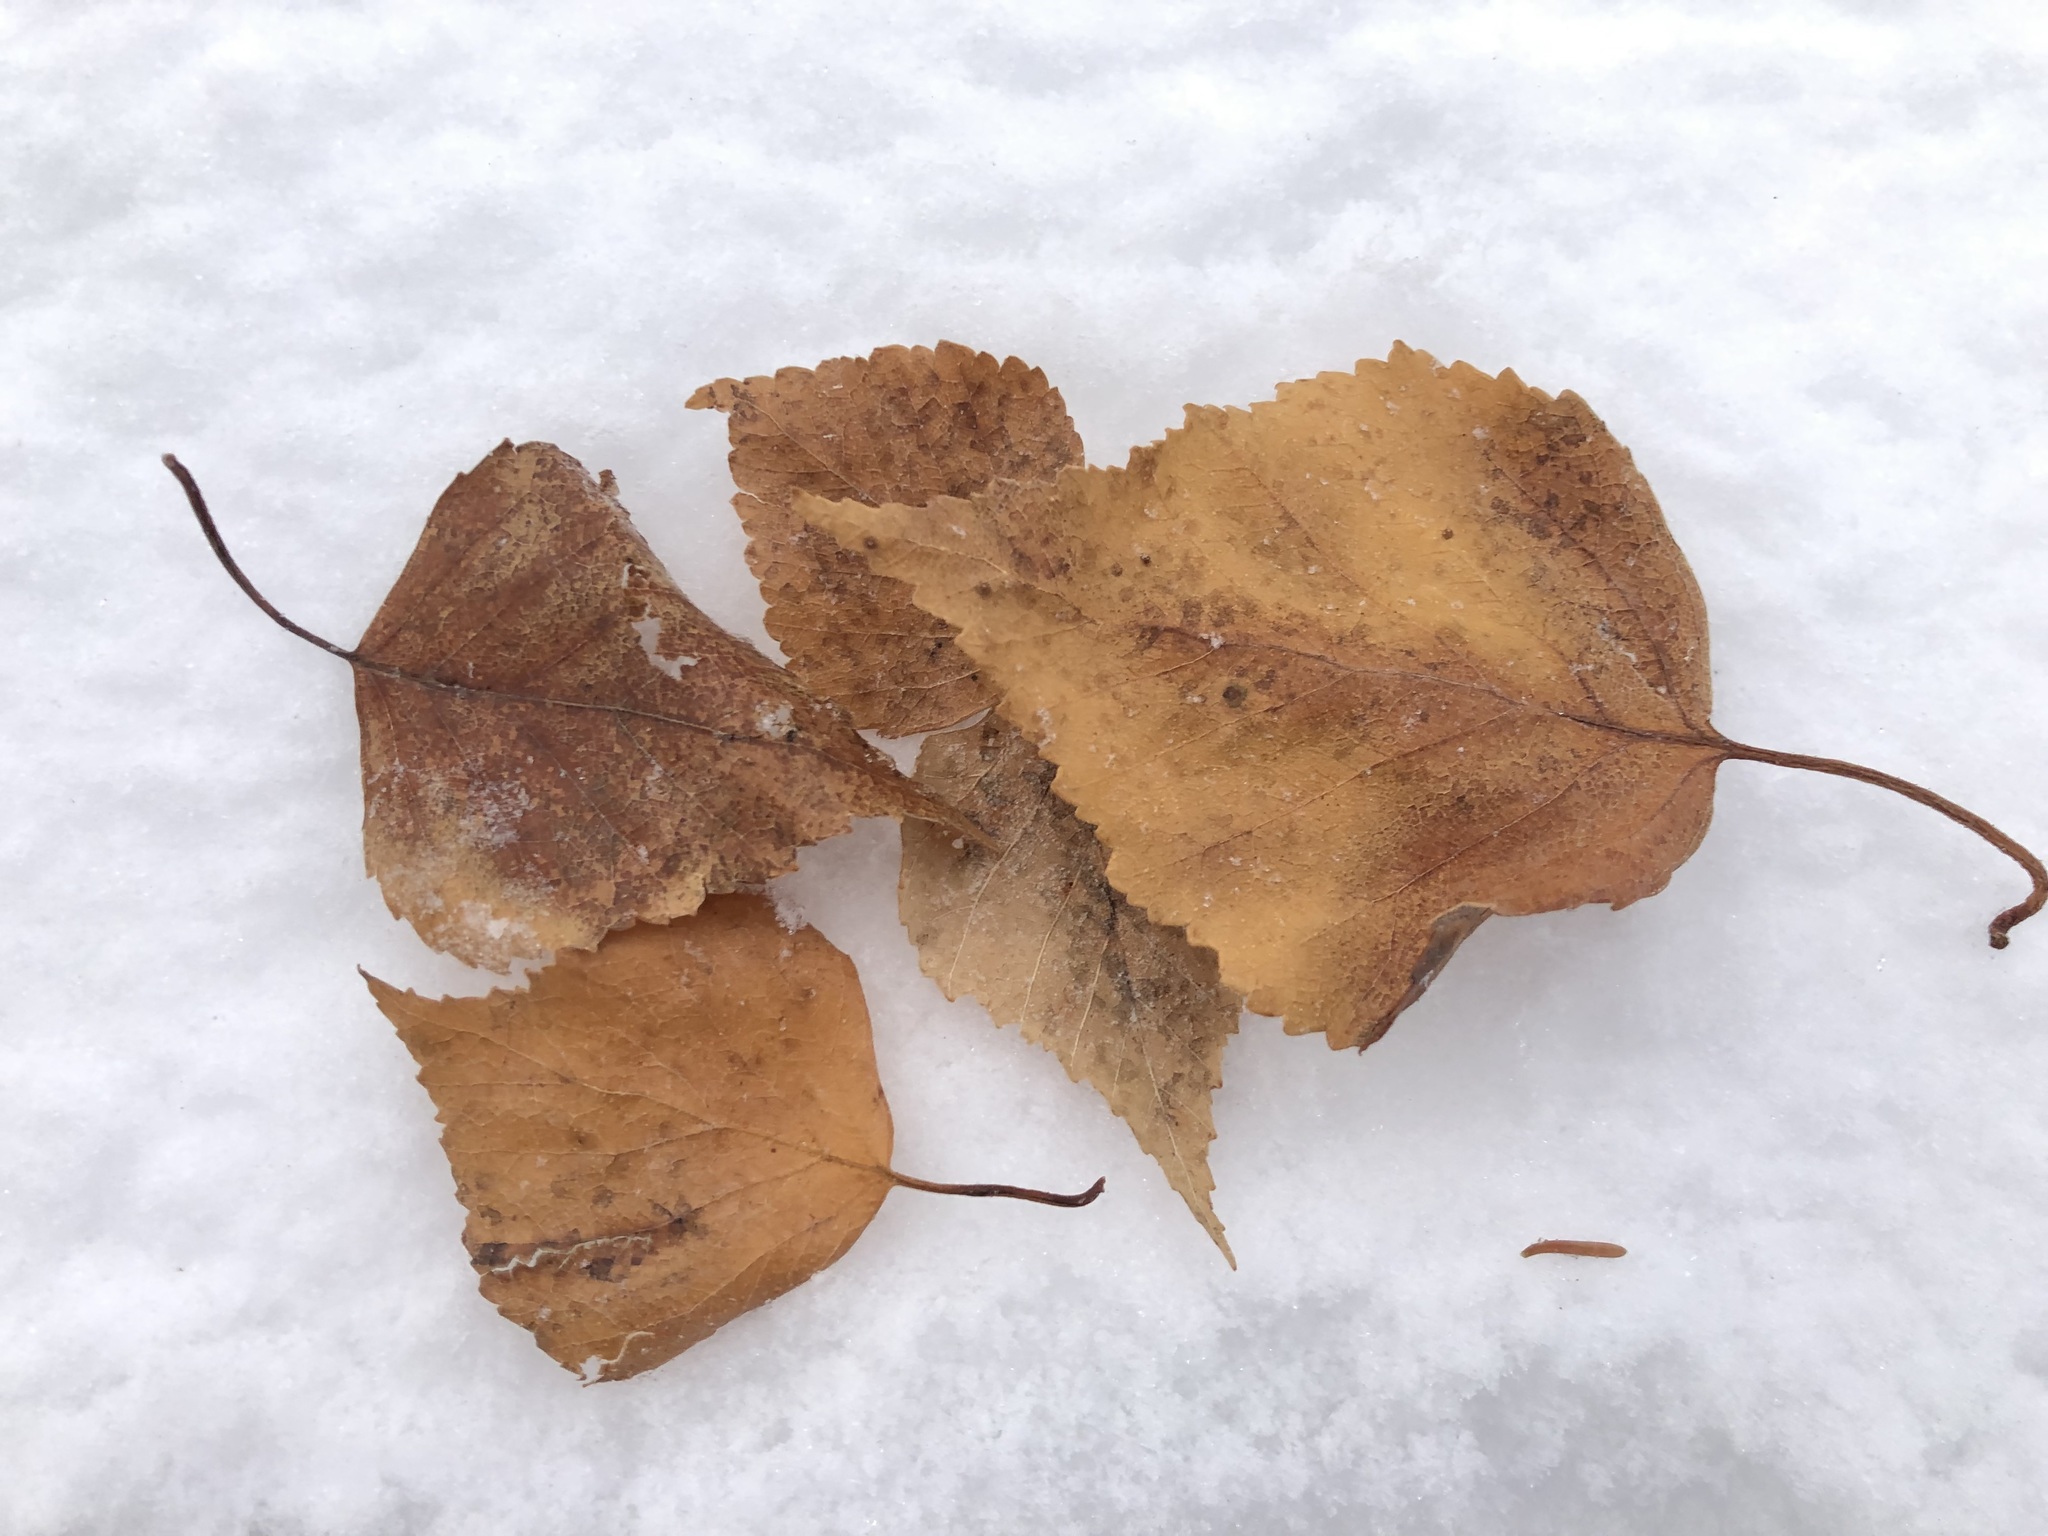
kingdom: Plantae
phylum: Tracheophyta
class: Magnoliopsida
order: Fagales
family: Betulaceae
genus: Betula
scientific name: Betula pendula
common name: Silver birch
